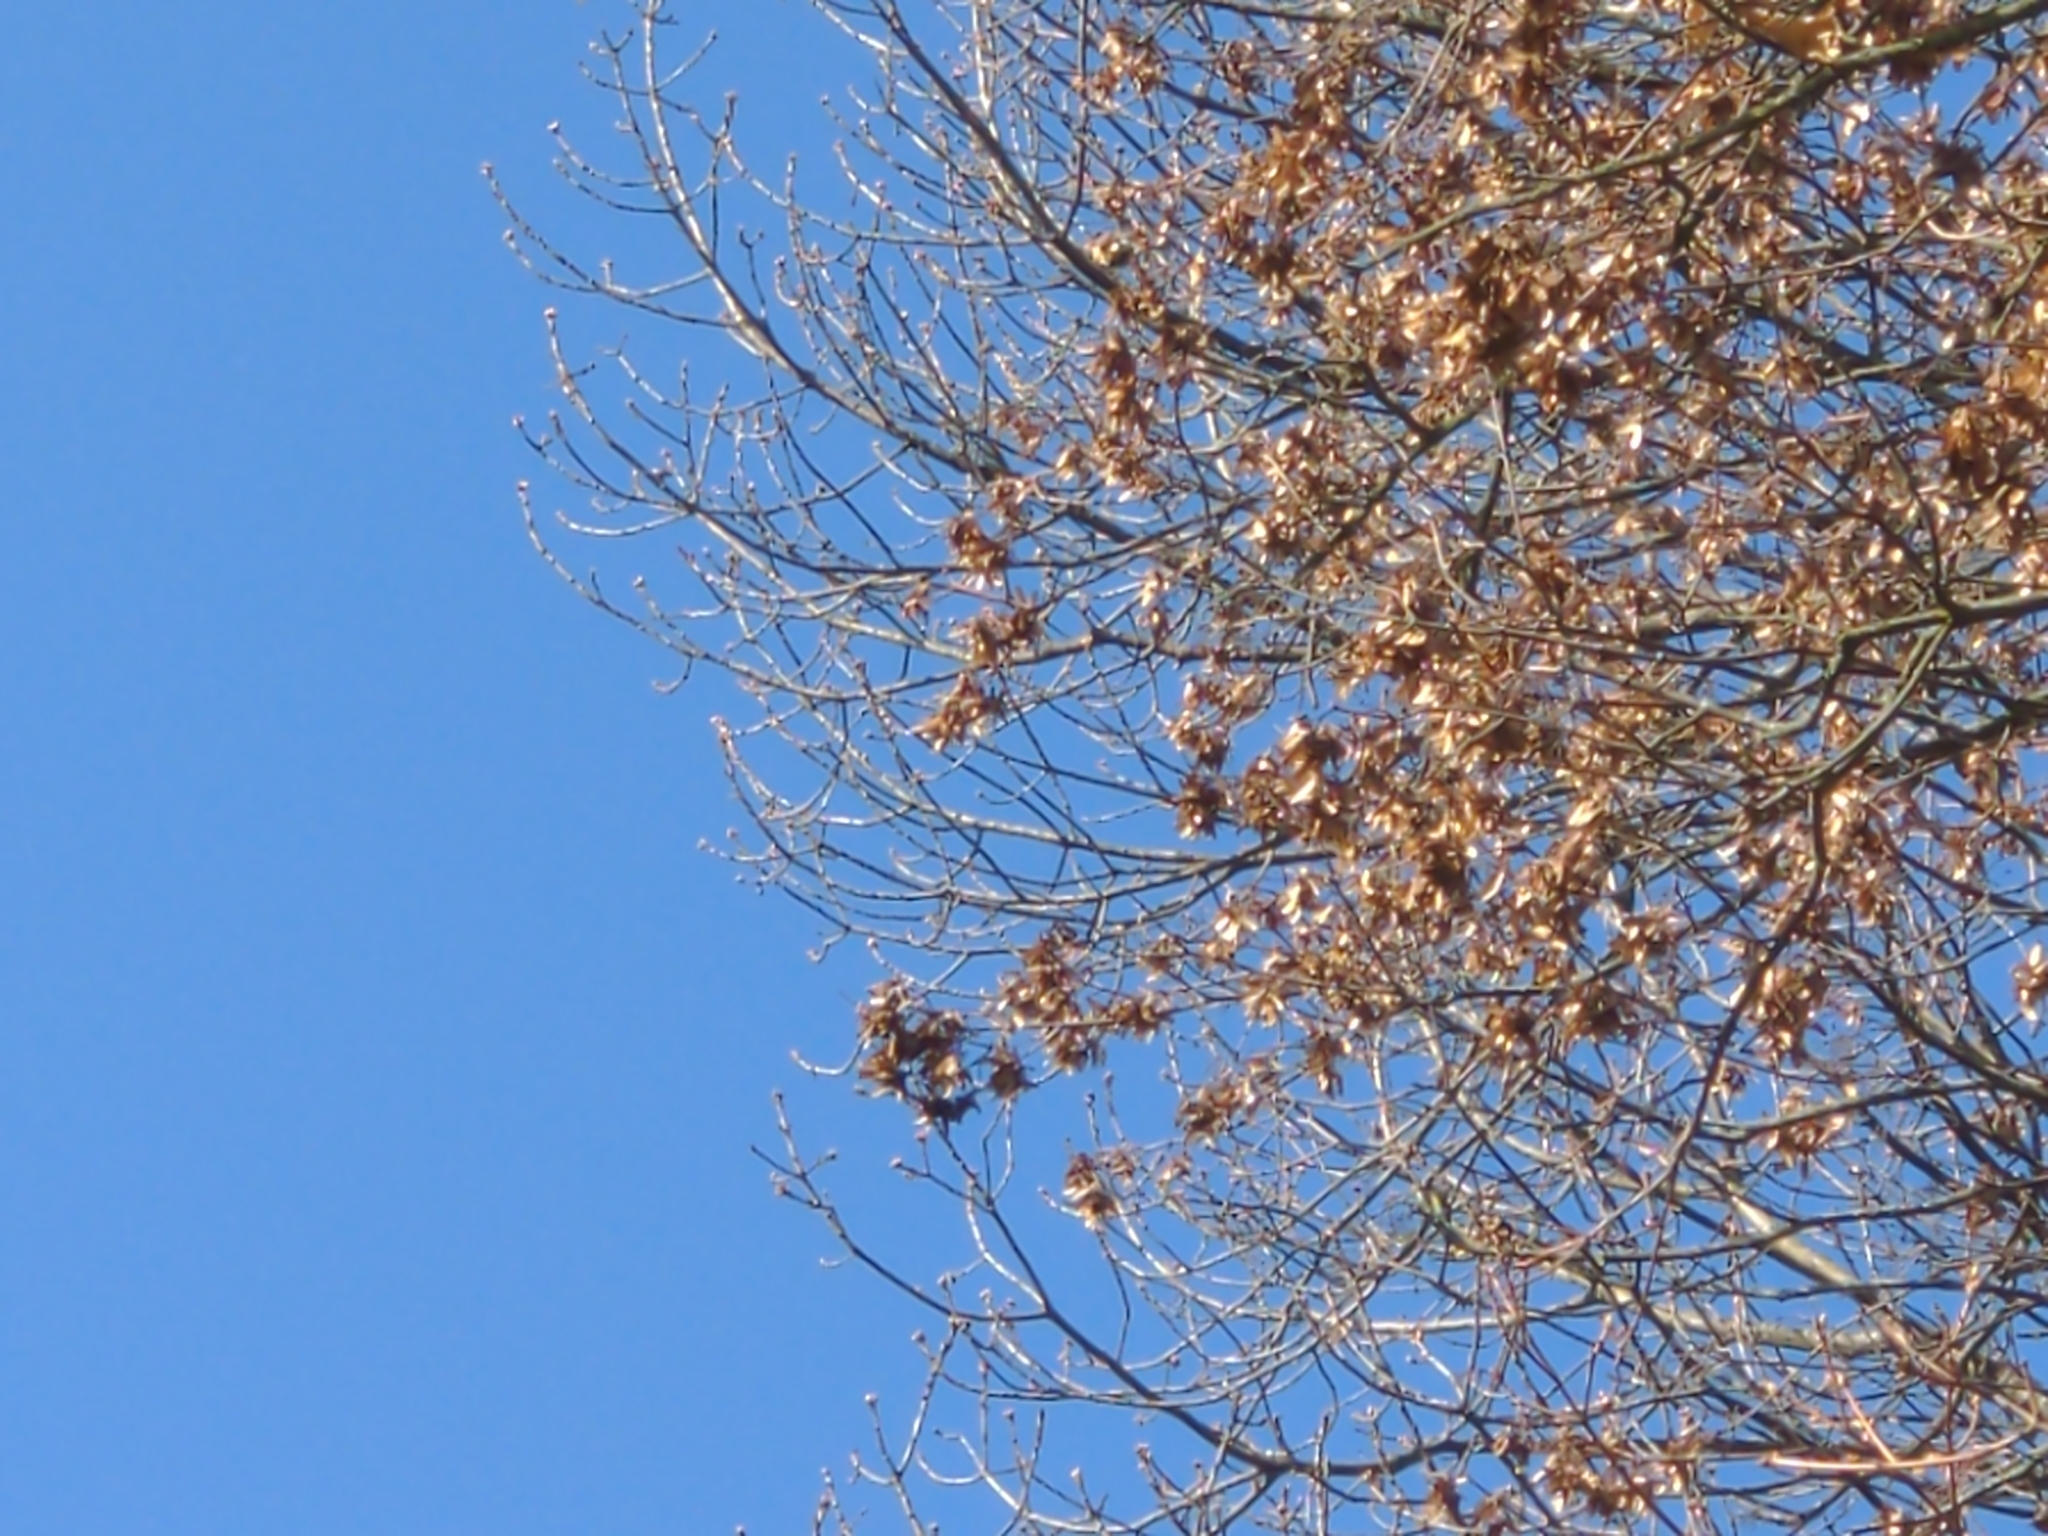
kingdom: Animalia
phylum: Chordata
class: Aves
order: Passeriformes
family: Paridae
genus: Parus
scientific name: Parus major
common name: Great tit
